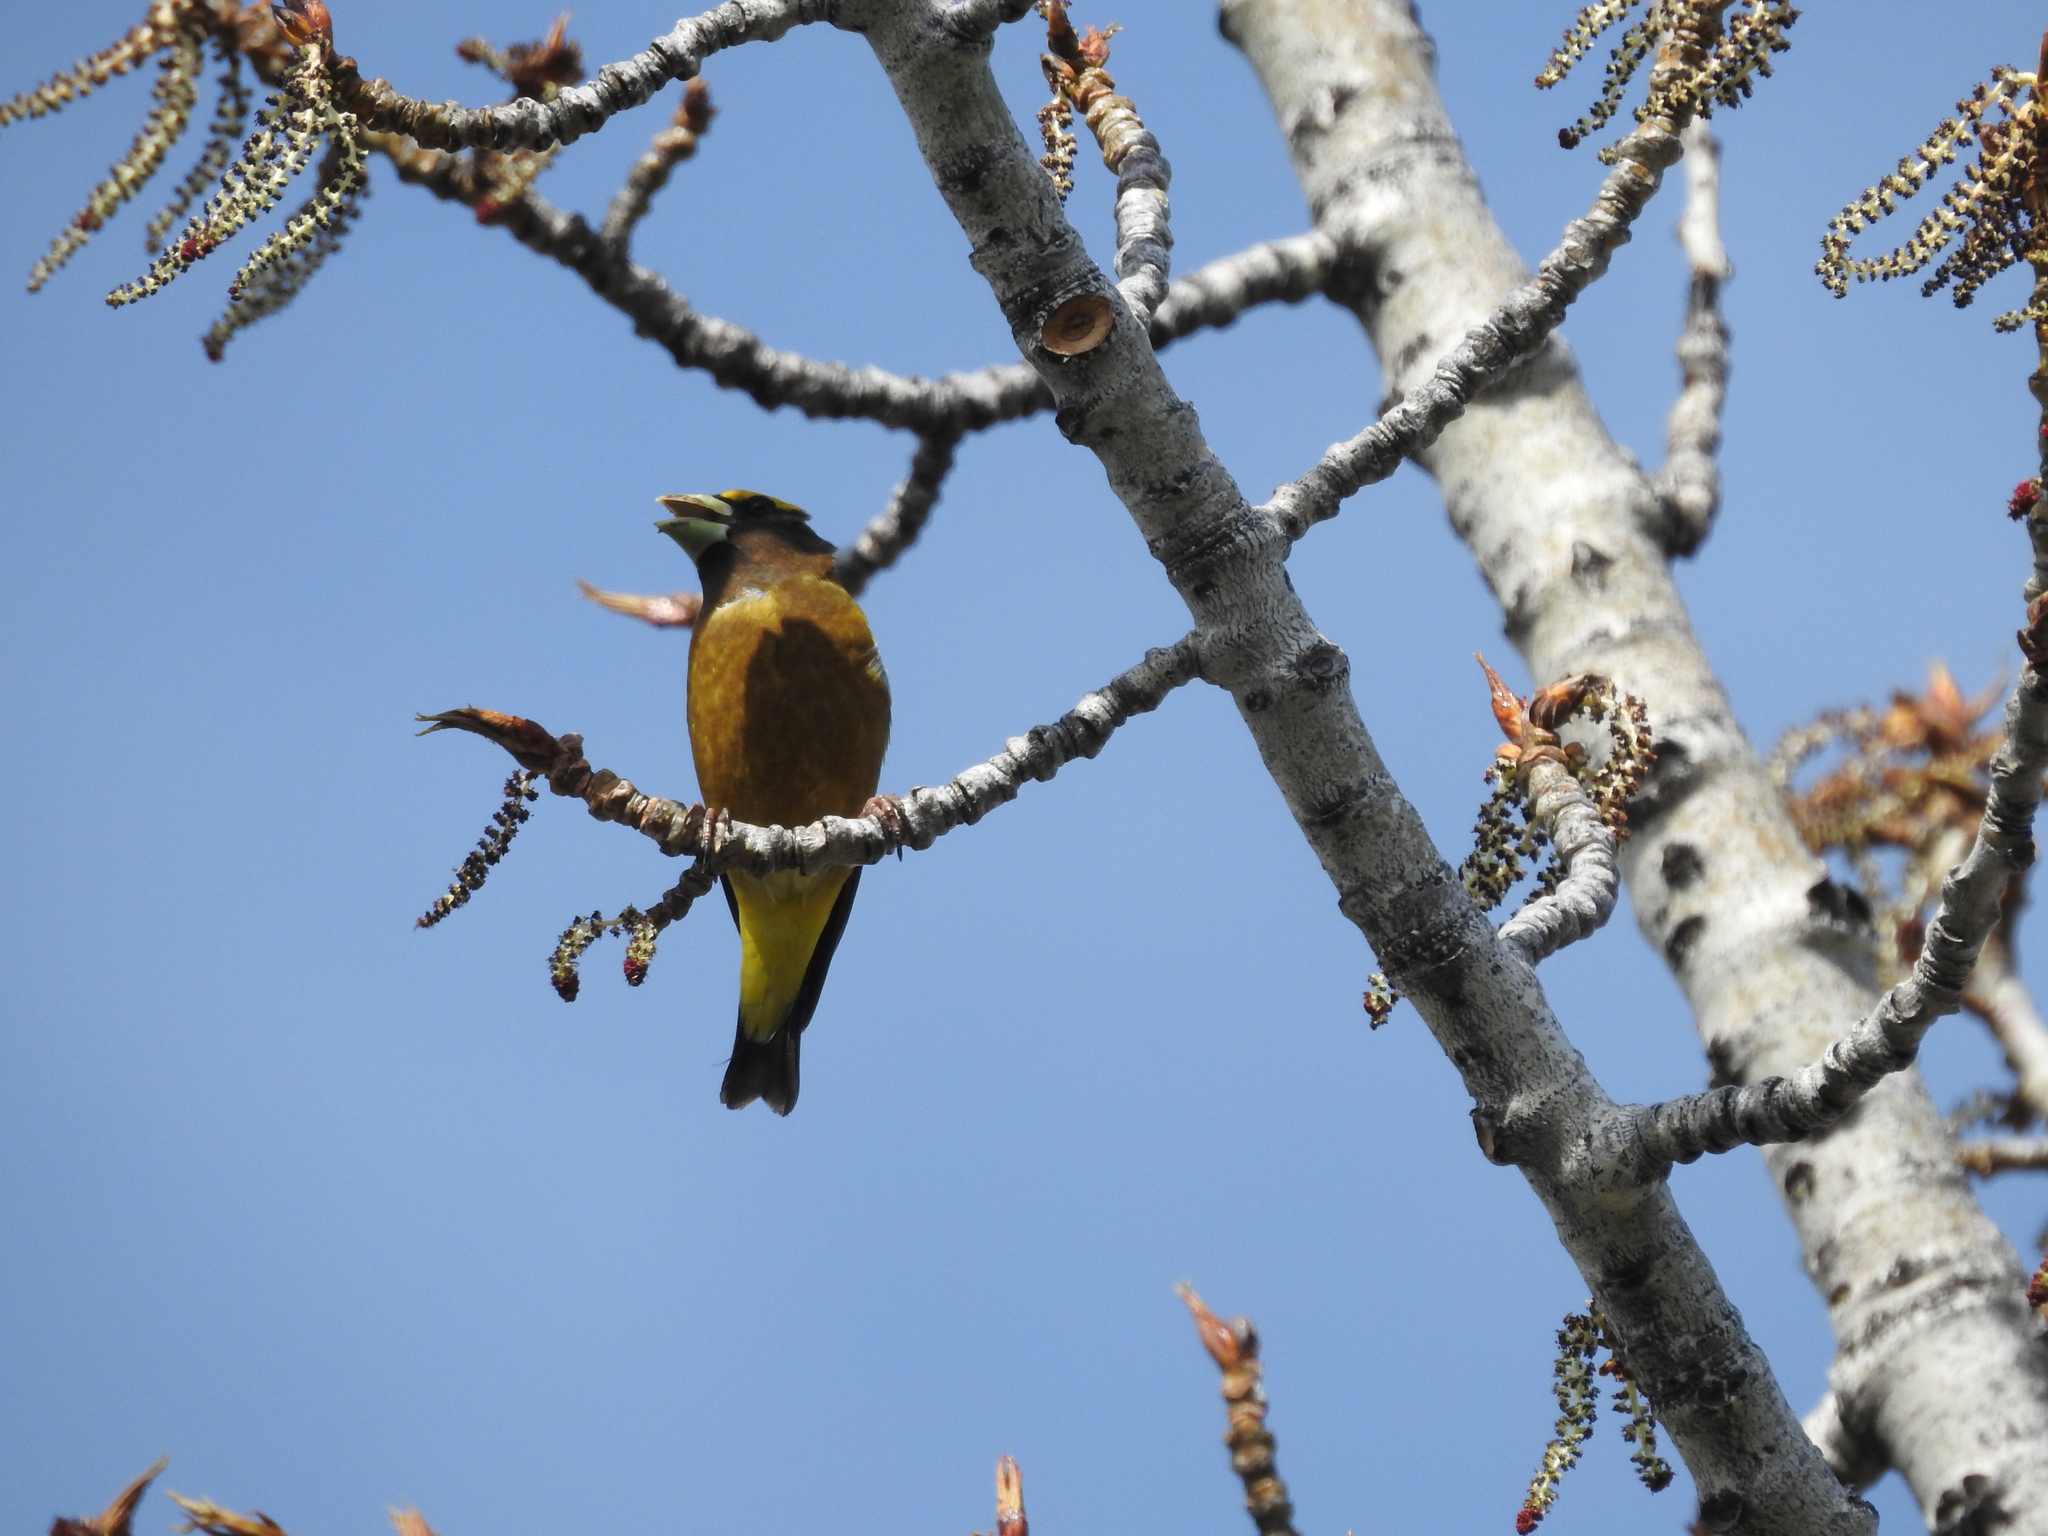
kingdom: Animalia
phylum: Chordata
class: Aves
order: Passeriformes
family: Fringillidae
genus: Hesperiphona
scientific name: Hesperiphona vespertina
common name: Evening grosbeak
